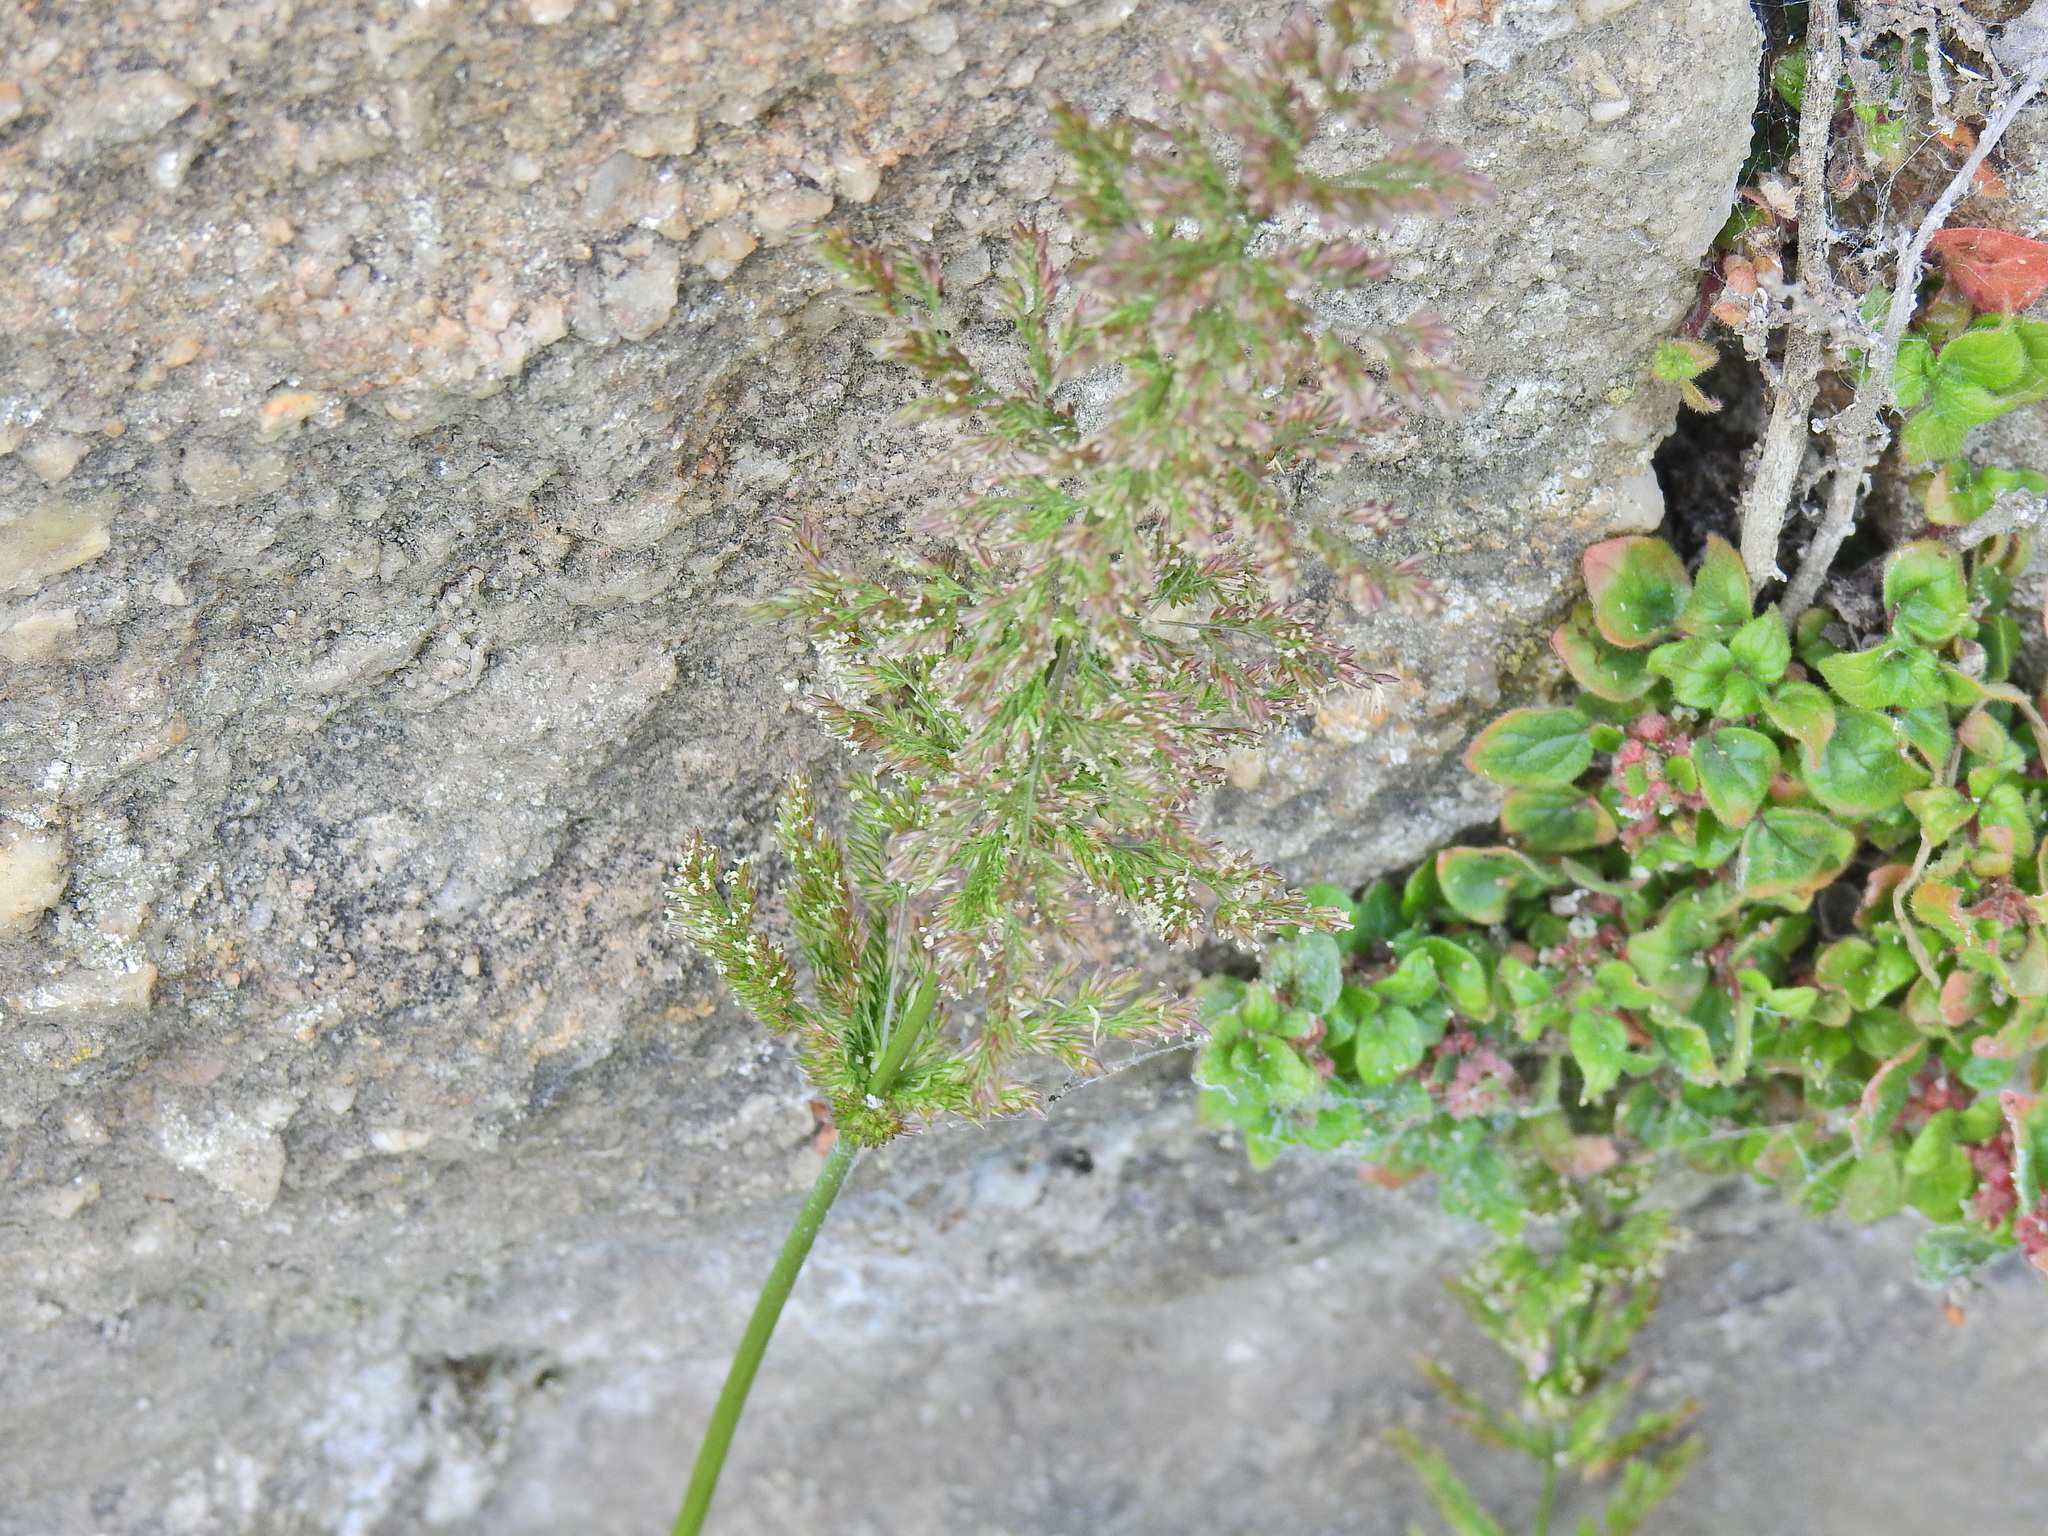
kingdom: Plantae
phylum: Tracheophyta
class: Liliopsida
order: Poales
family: Poaceae
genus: Polypogon
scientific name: Polypogon viridis
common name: Water bent
